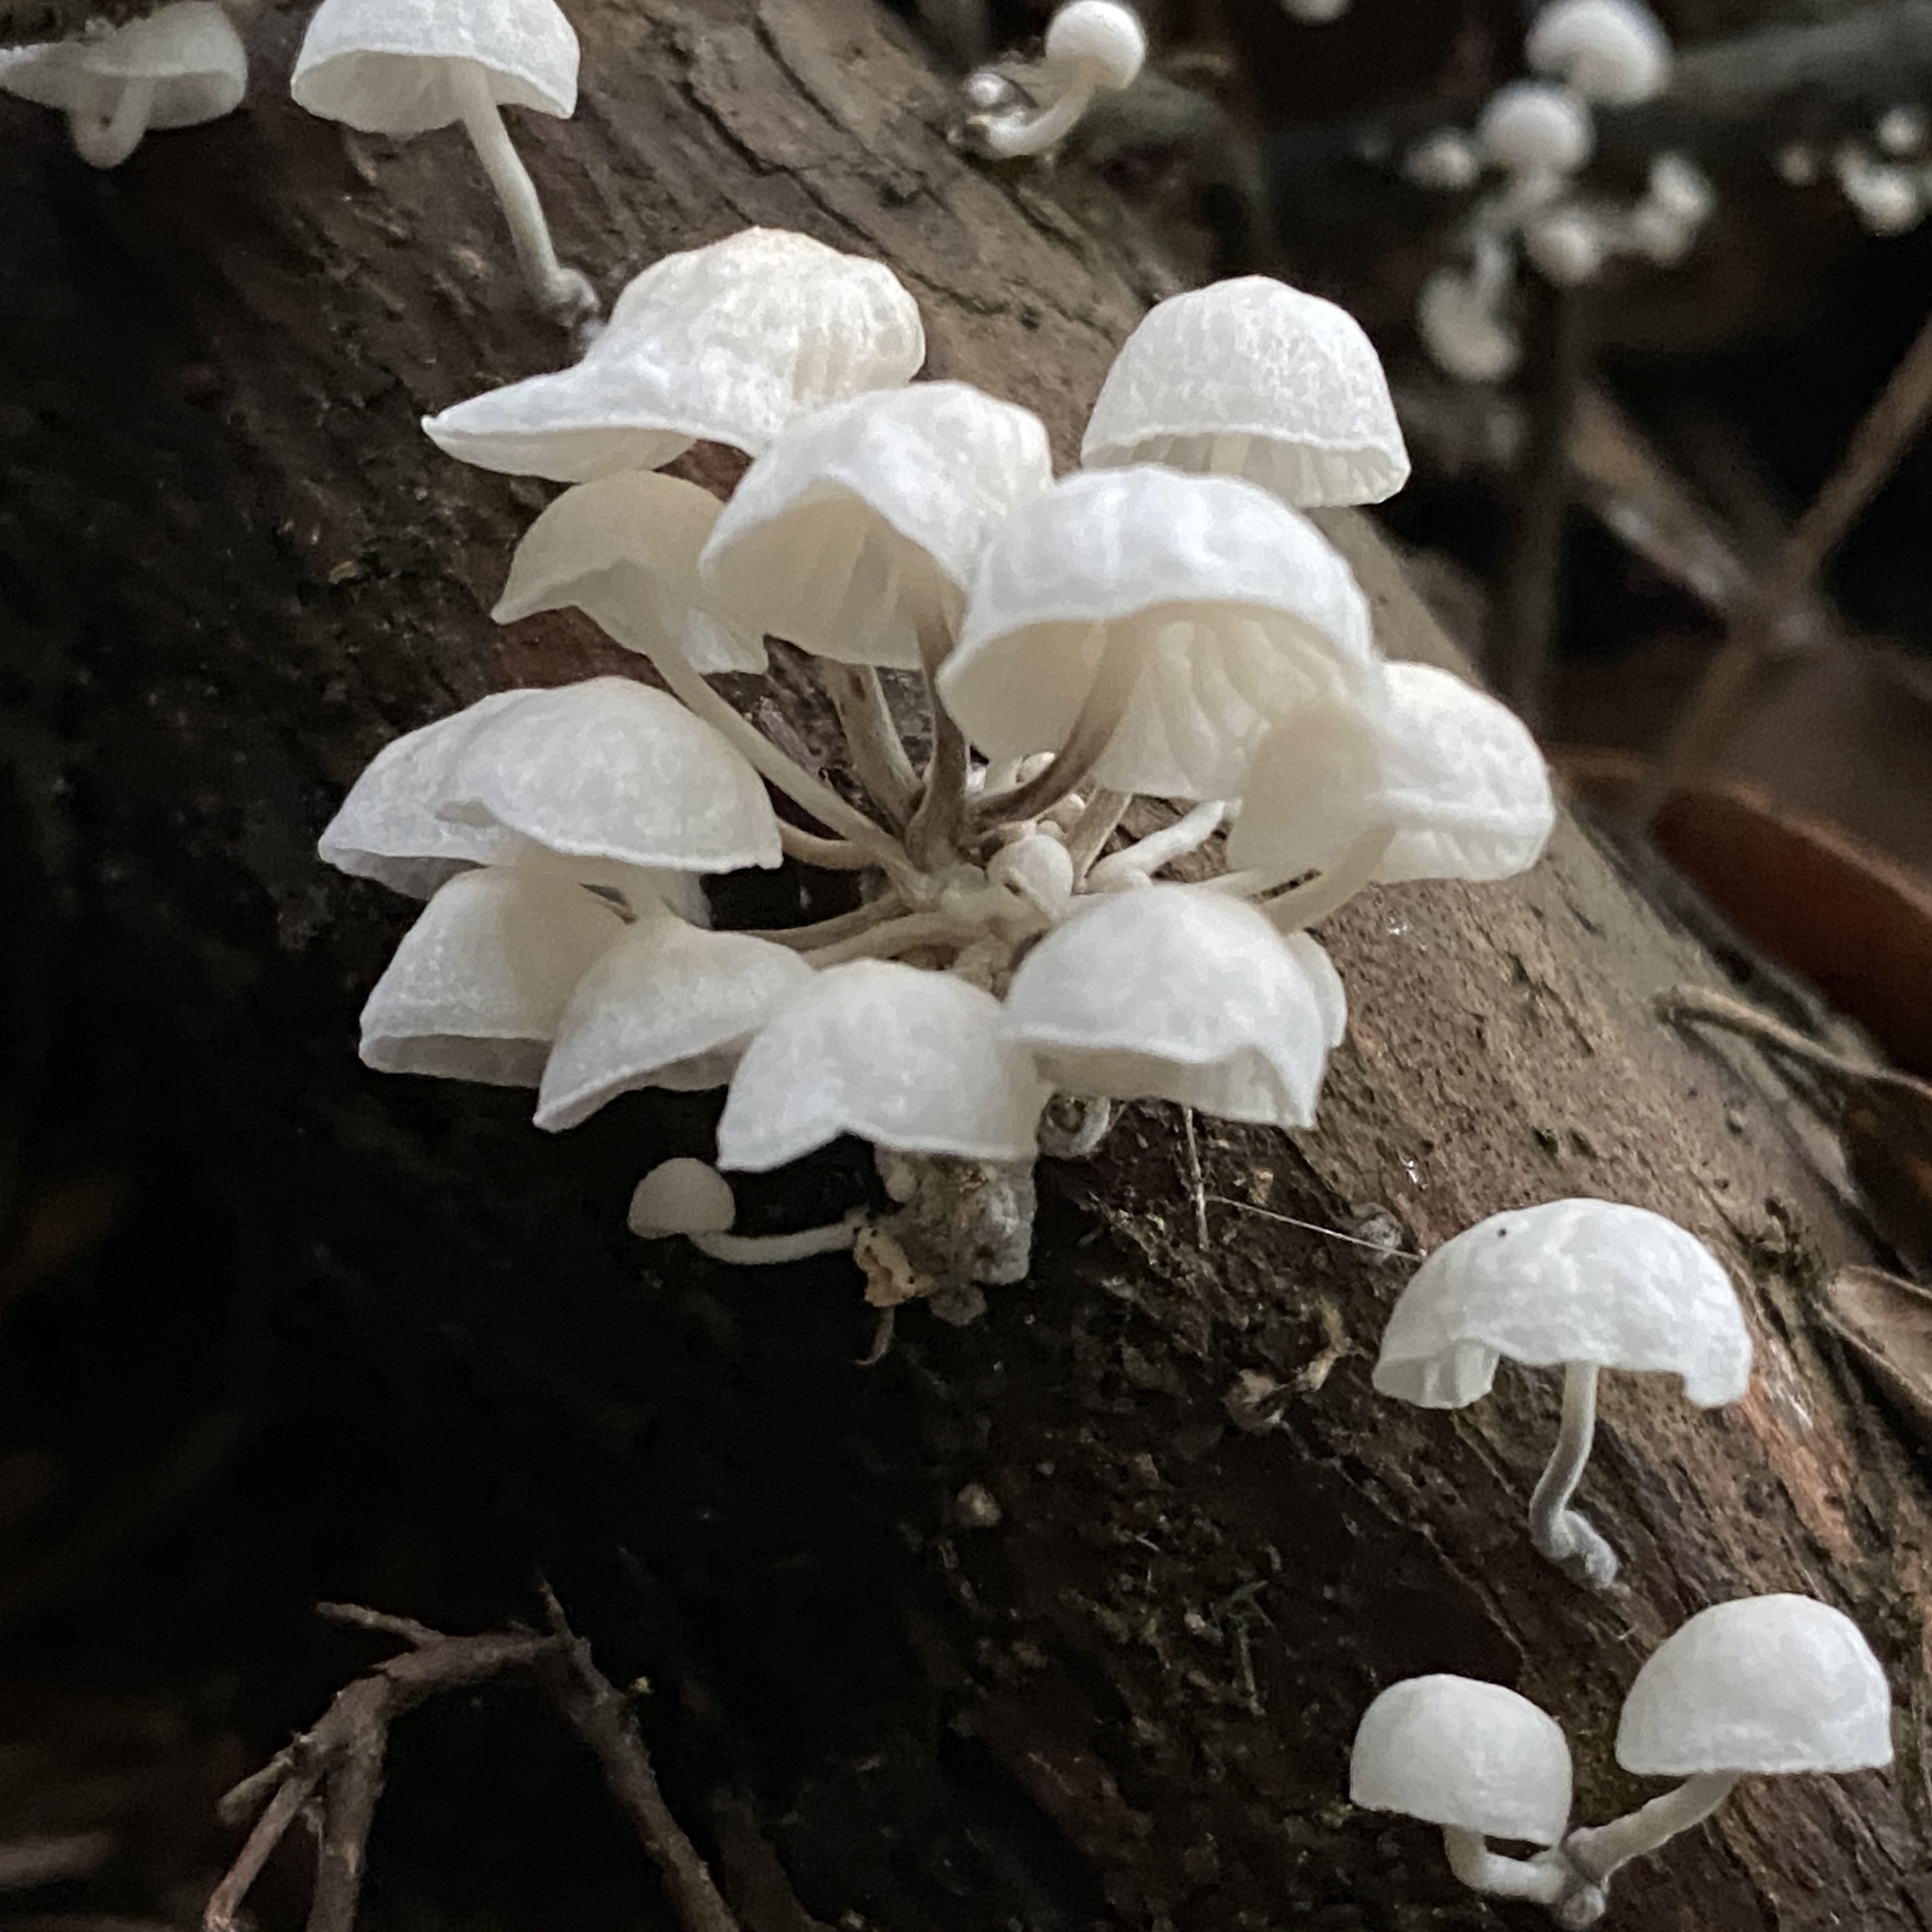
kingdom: Fungi
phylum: Basidiomycota
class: Agaricomycetes
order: Agaricales
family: Omphalotaceae
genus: Marasmiellus
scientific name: Marasmiellus candidus
